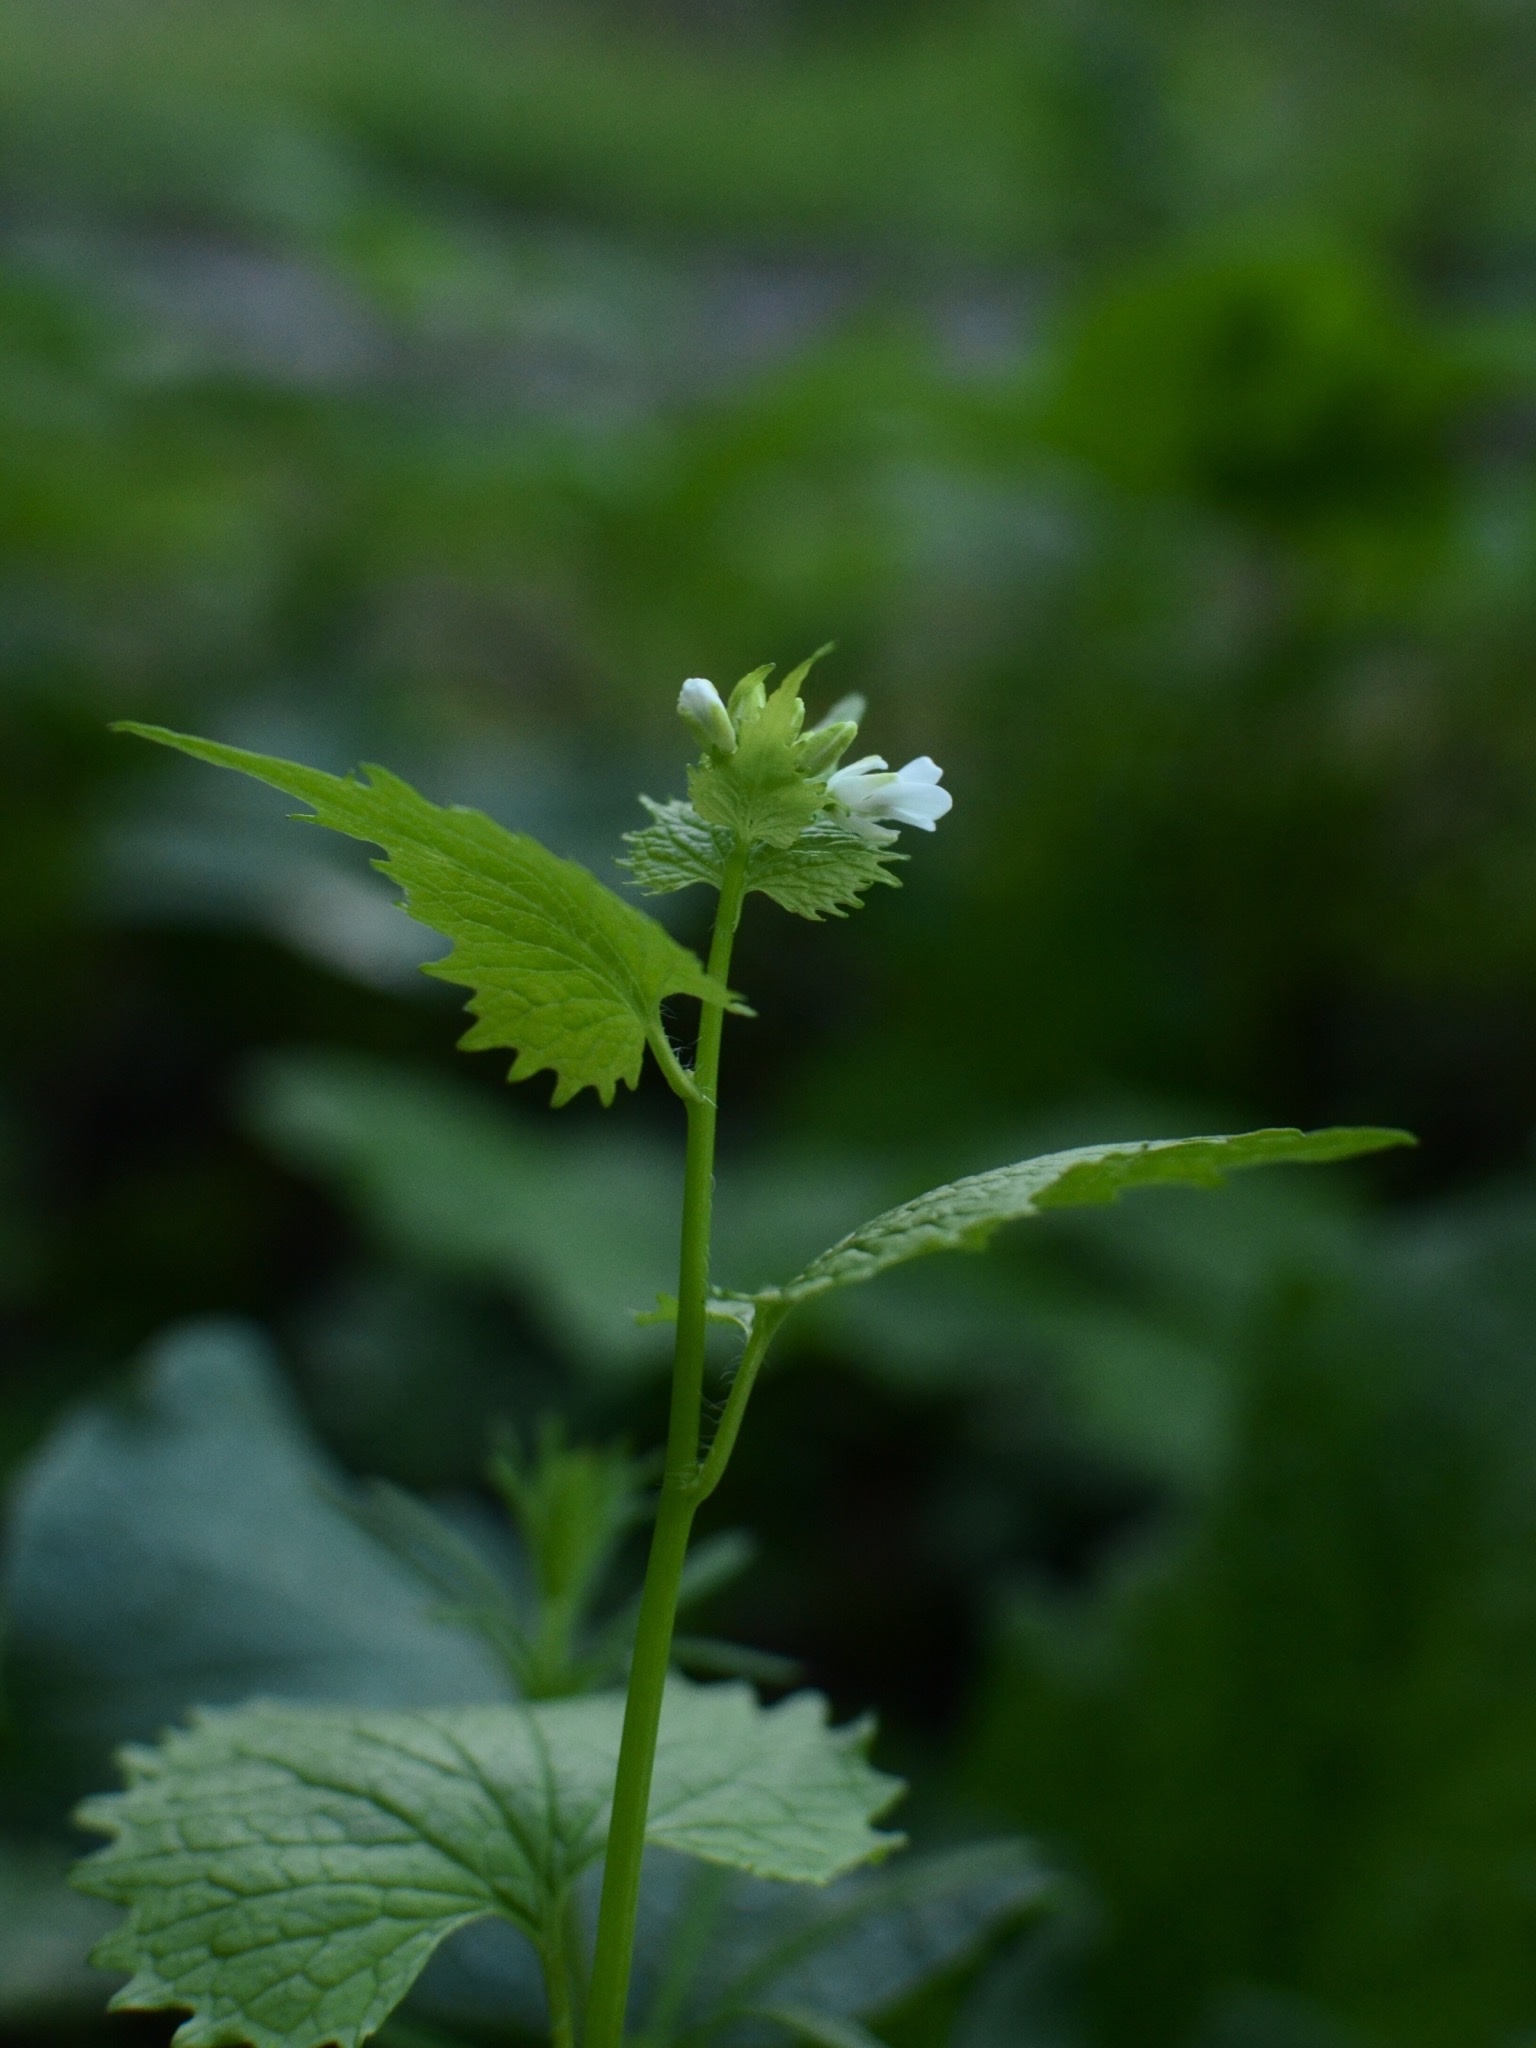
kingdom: Plantae
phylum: Tracheophyta
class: Magnoliopsida
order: Brassicales
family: Brassicaceae
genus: Alliaria
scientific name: Alliaria petiolata
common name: Garlic mustard
